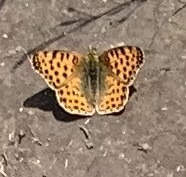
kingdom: Animalia
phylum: Arthropoda
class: Insecta
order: Lepidoptera
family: Nymphalidae
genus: Issoria
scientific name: Issoria lathonia
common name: Queen of spain fritillary
